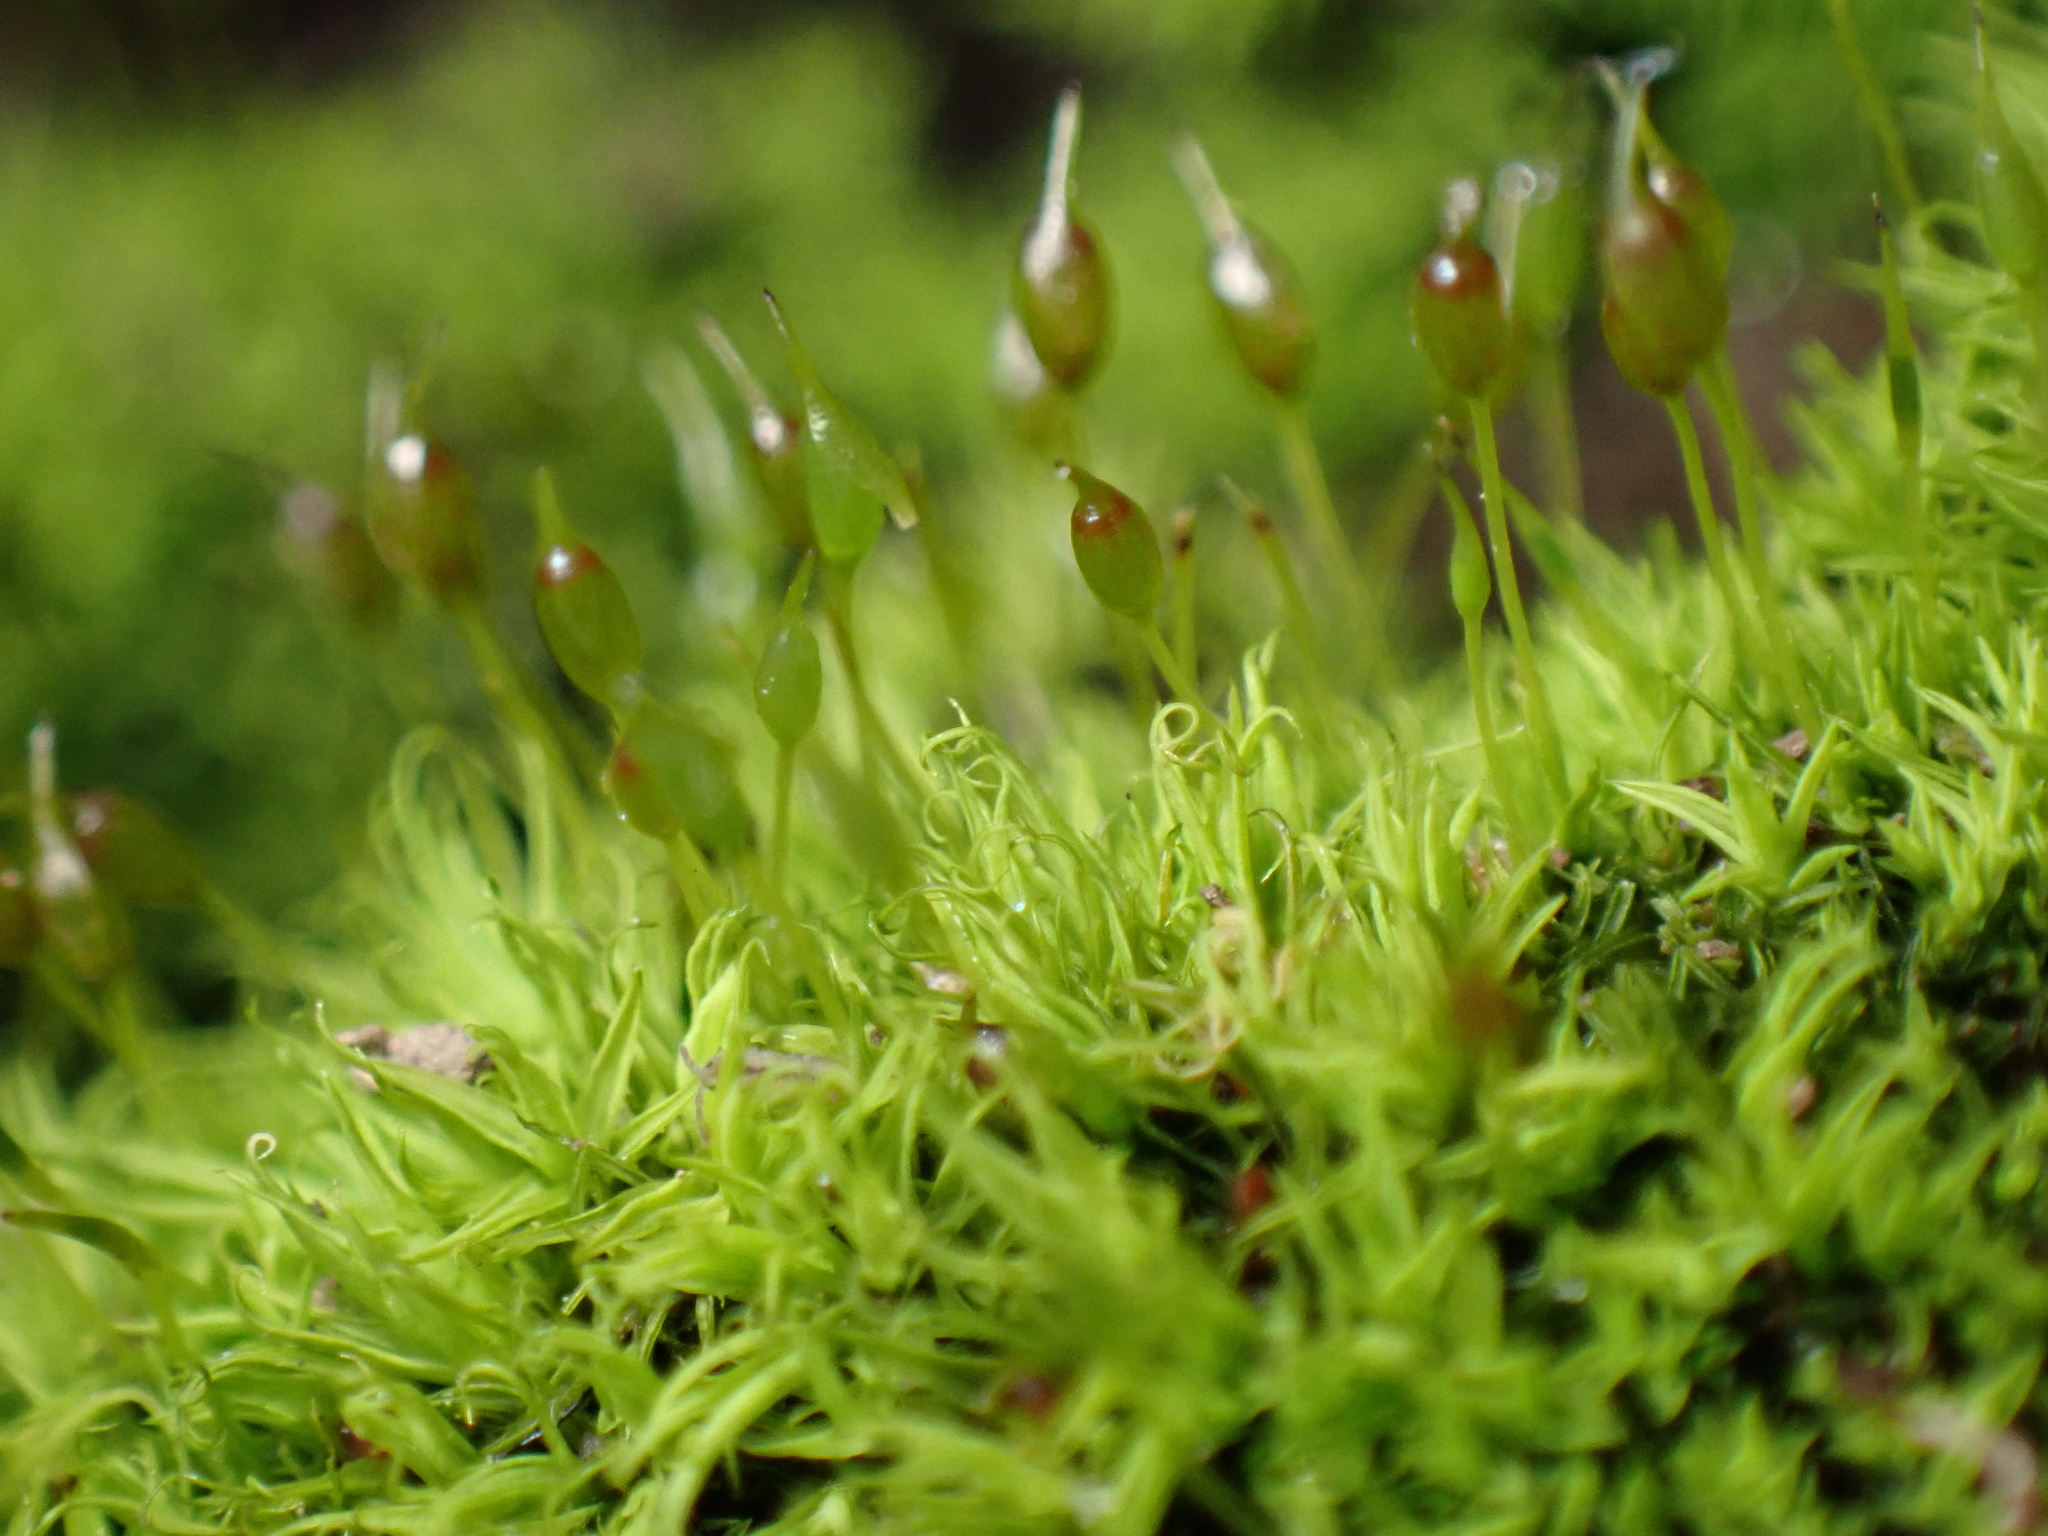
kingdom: Plantae
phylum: Bryophyta
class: Bryopsida
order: Pottiales
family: Pottiaceae
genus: Weissia
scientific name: Weissia controversa
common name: Green-tufted stubble moss
